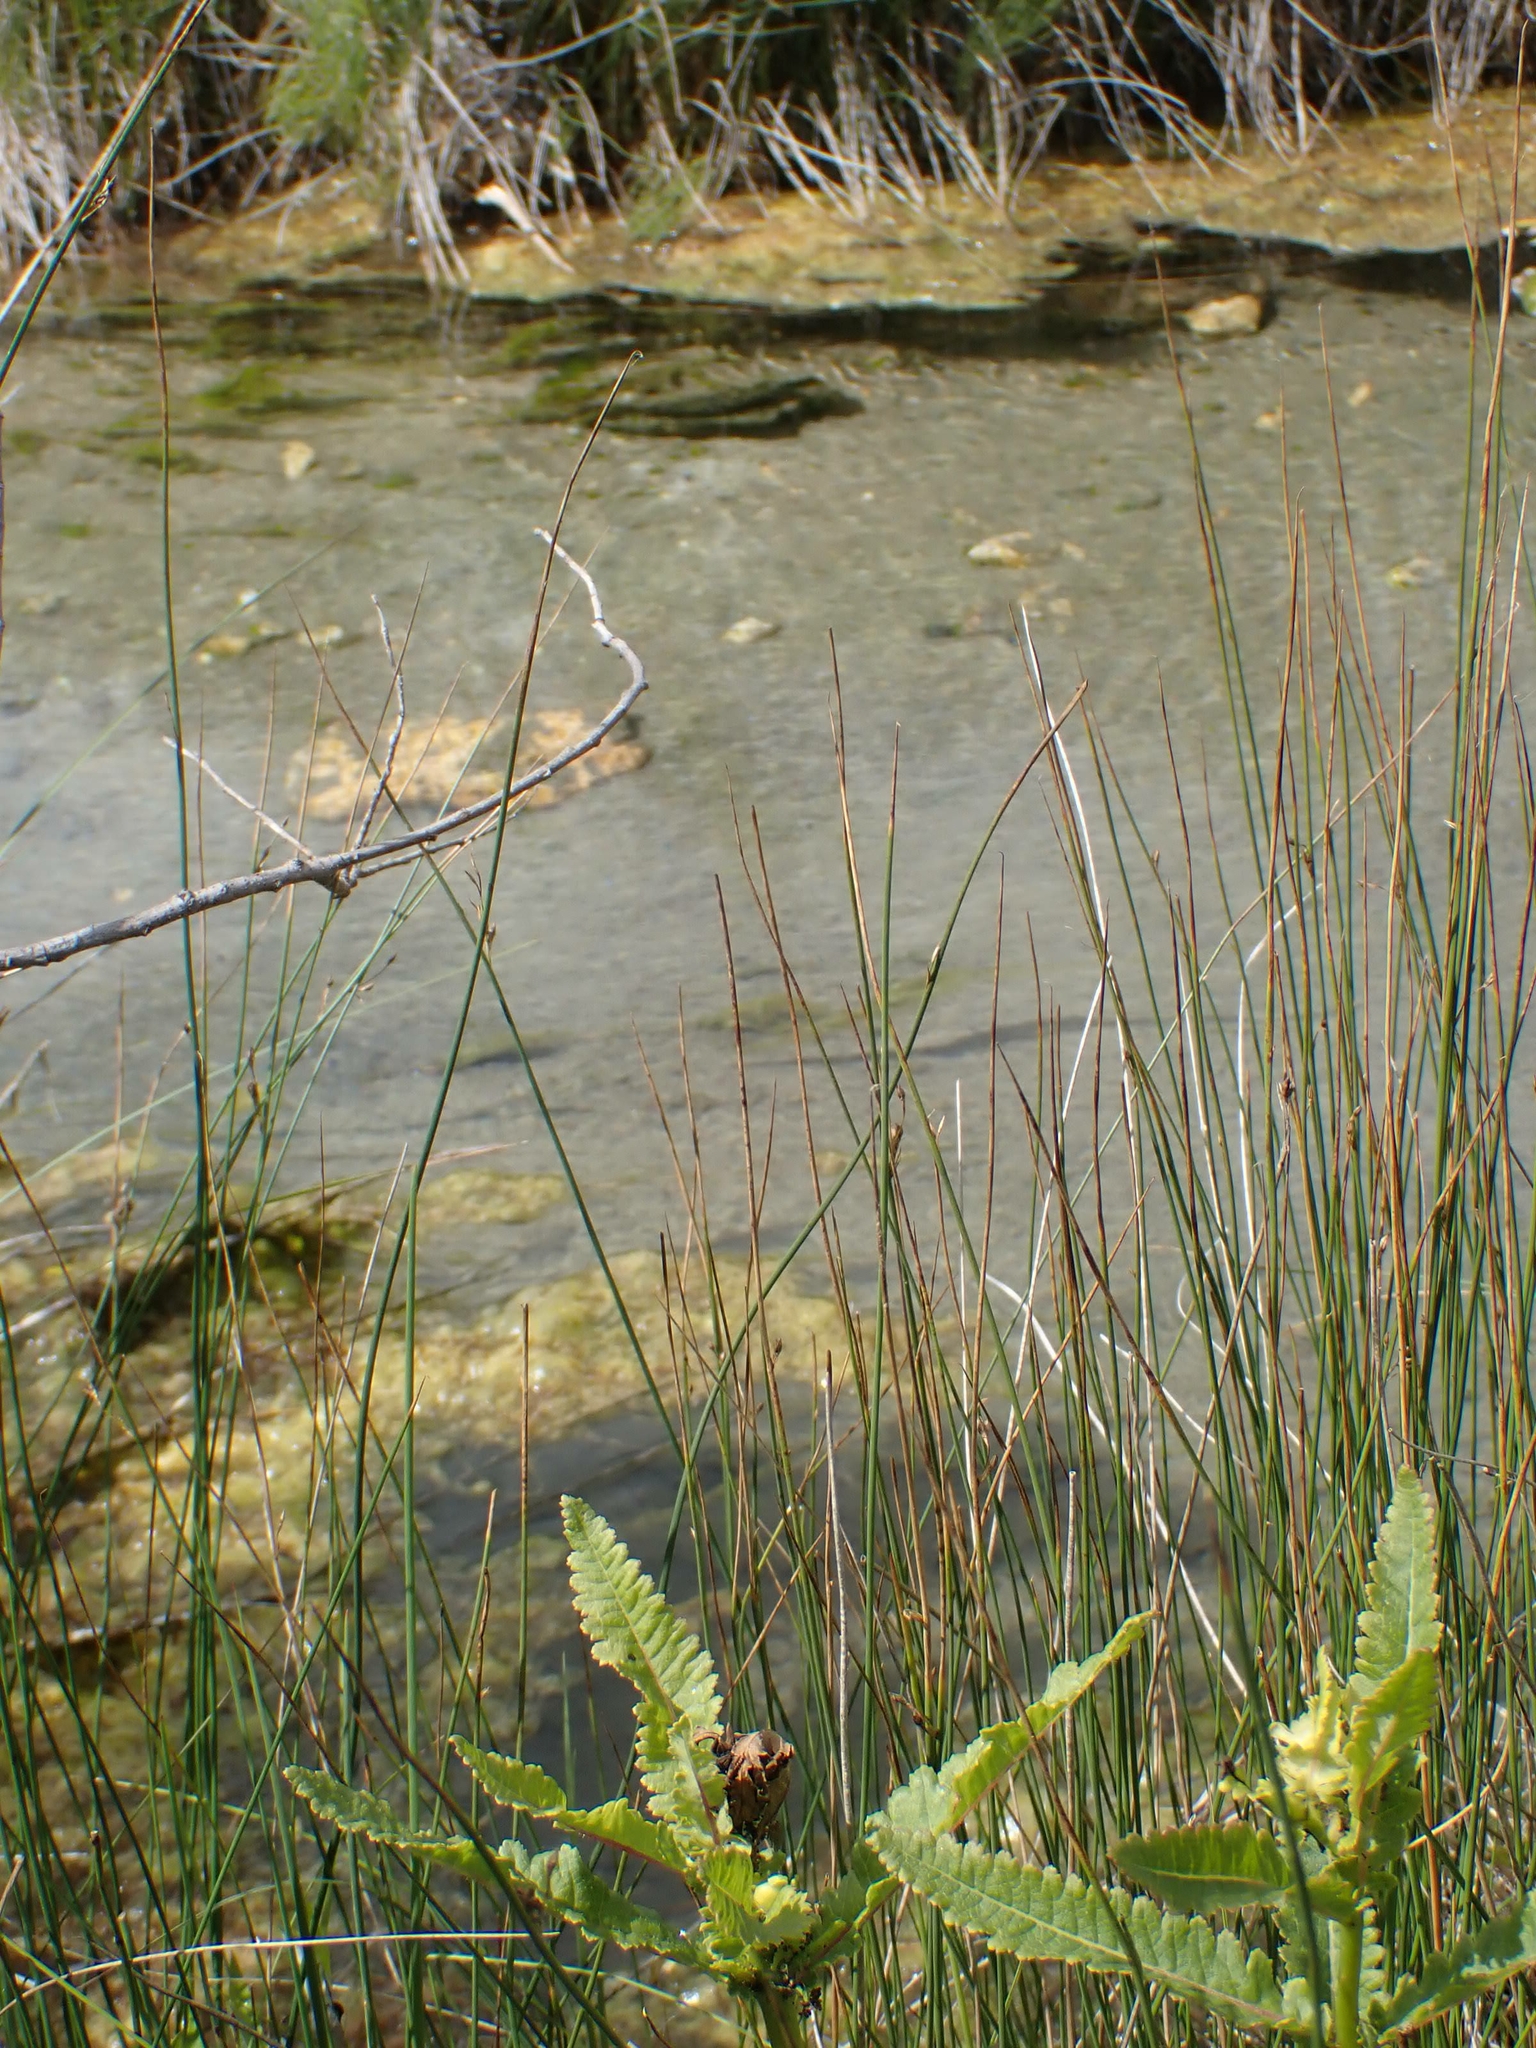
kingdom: Plantae
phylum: Tracheophyta
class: Magnoliopsida
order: Lamiales
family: Orobanchaceae
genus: Pedicularis
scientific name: Pedicularis lanceolata
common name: Swamp lousewort
